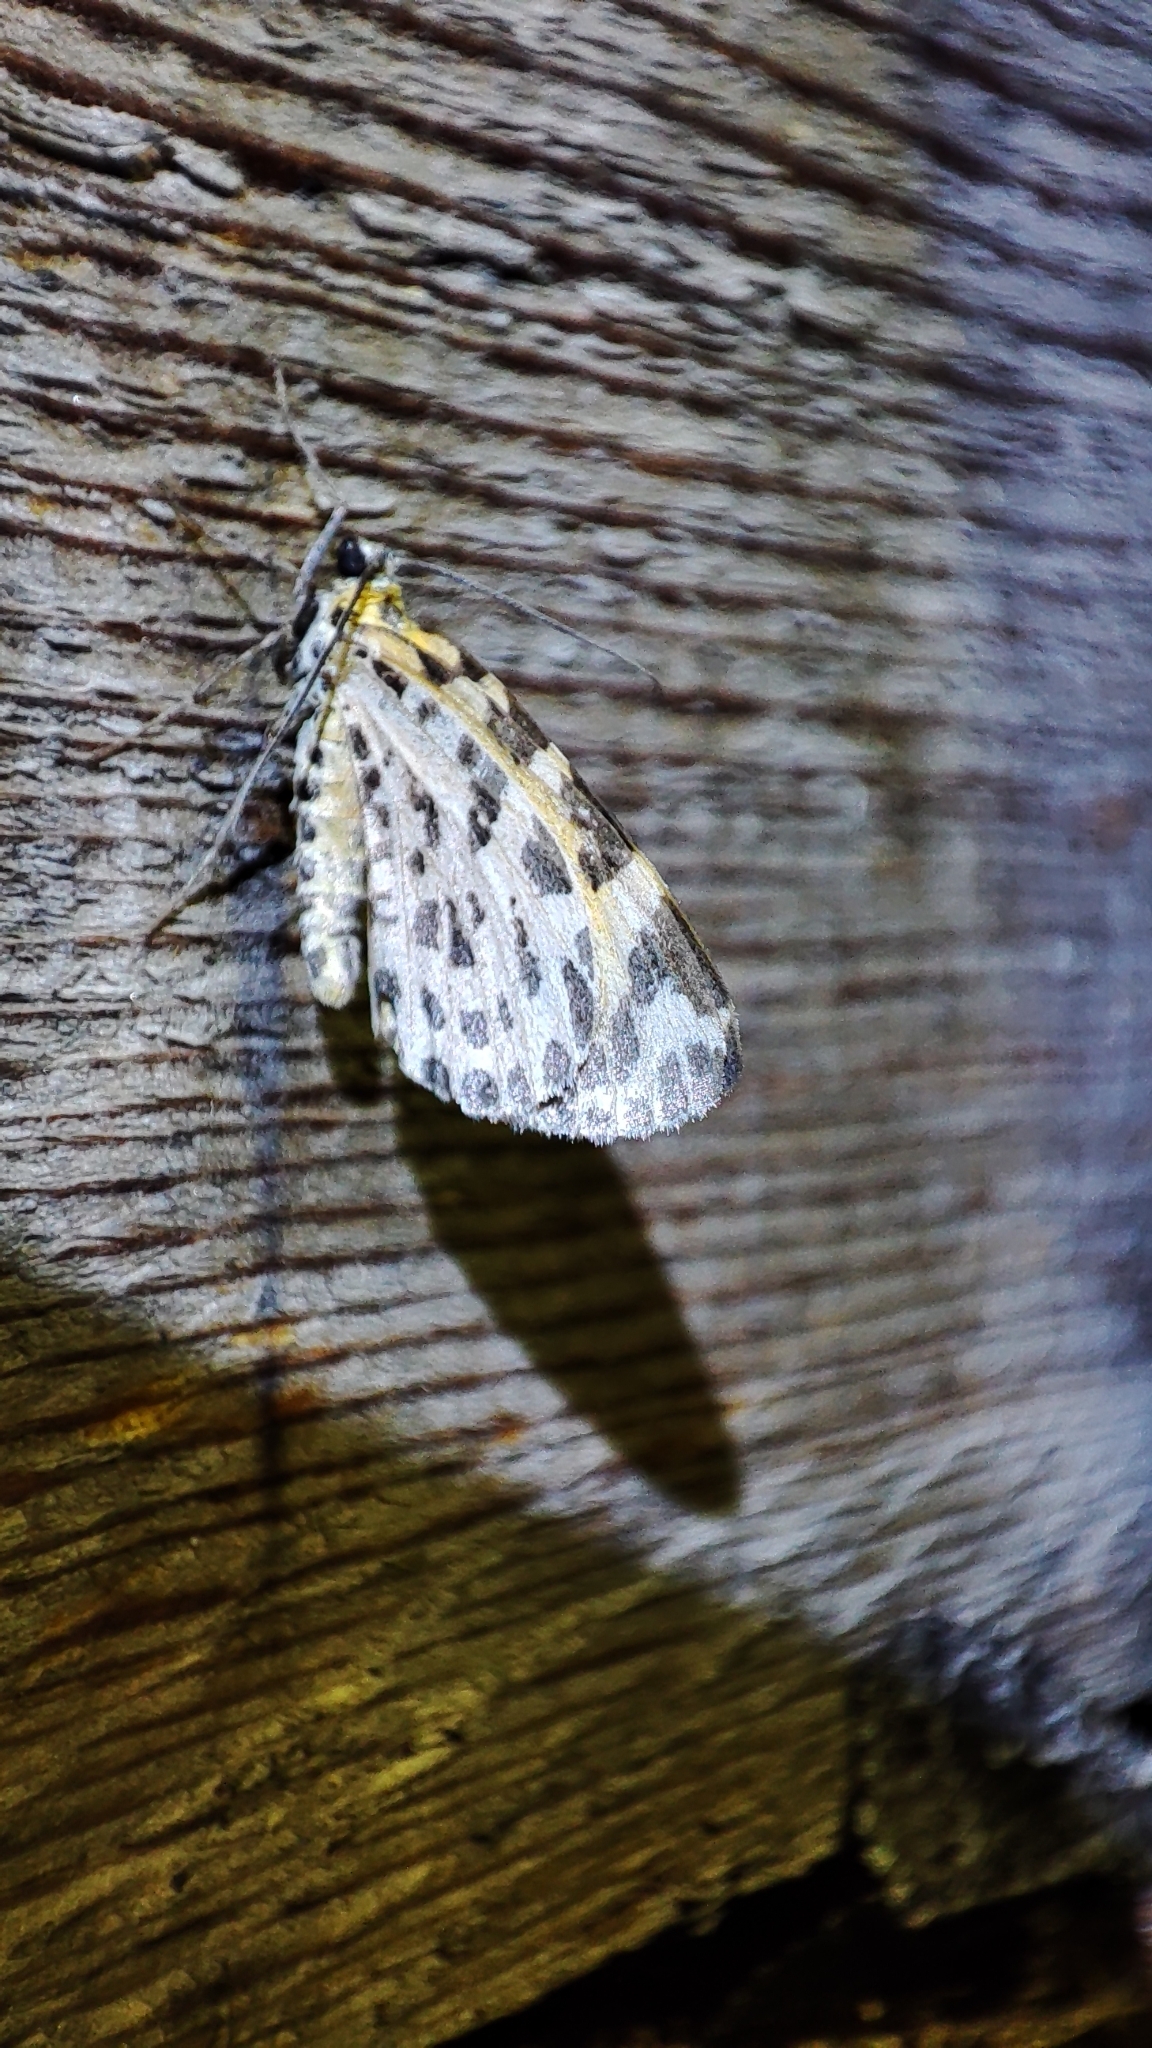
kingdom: Animalia
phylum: Arthropoda
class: Insecta
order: Lepidoptera
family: Geometridae
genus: Stamnodes
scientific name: Stamnodes danilovi
